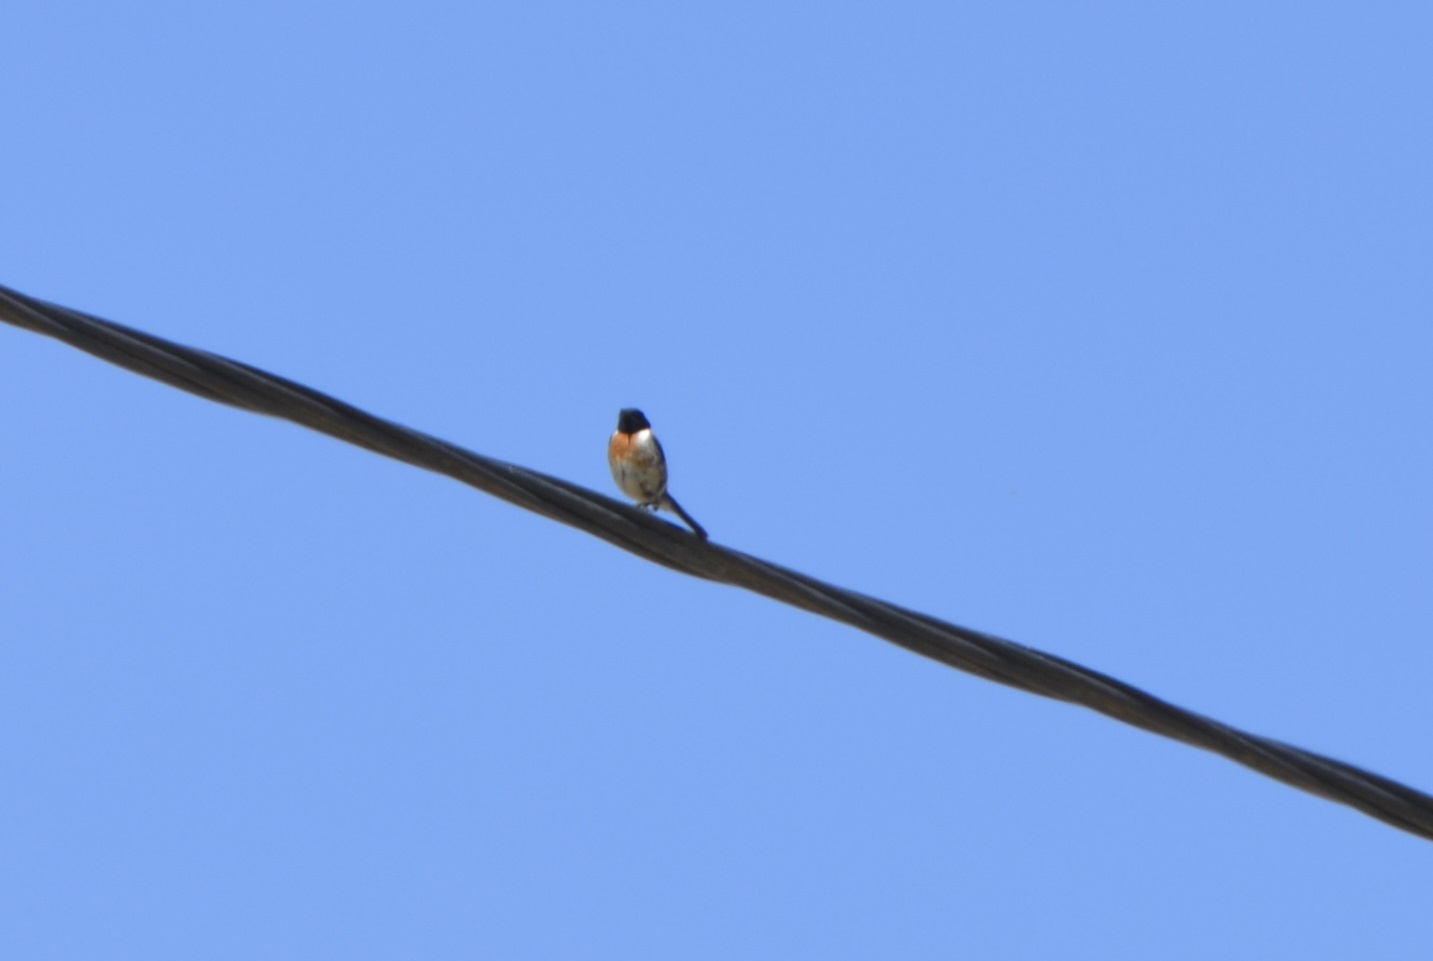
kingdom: Animalia
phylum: Chordata
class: Aves
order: Passeriformes
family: Muscicapidae
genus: Saxicola
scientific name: Saxicola rubicola
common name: European stonechat
